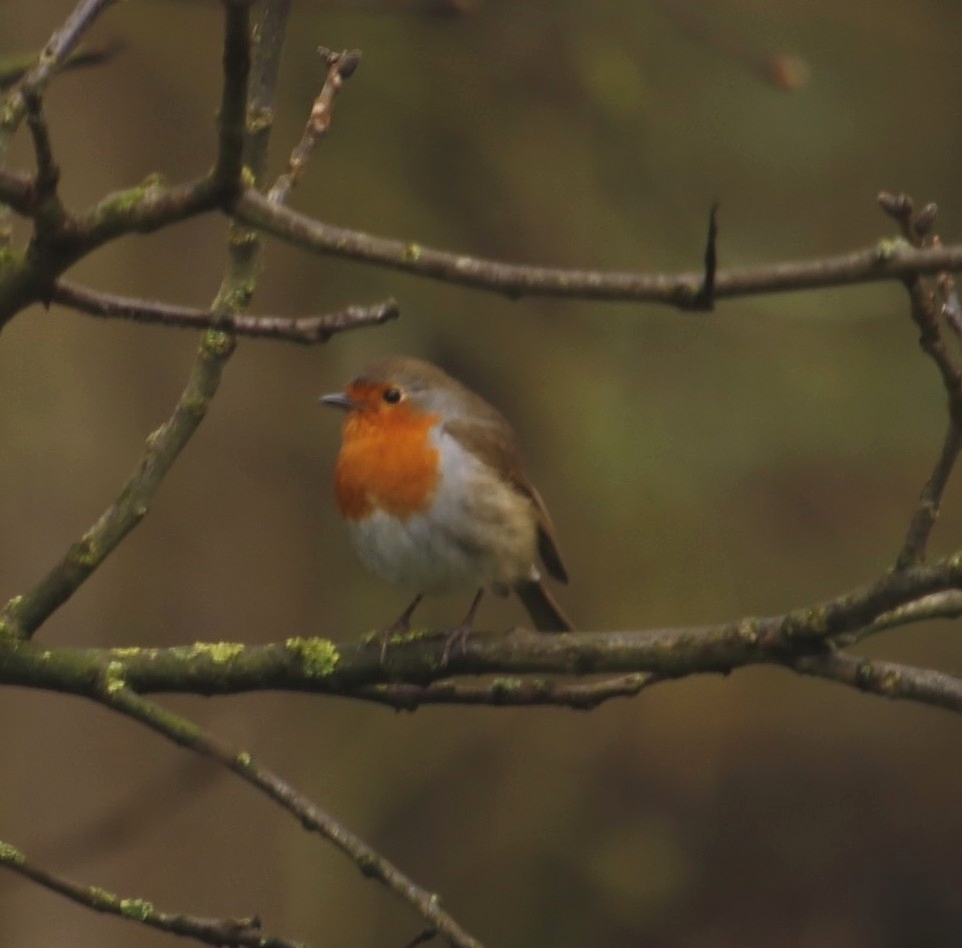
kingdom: Animalia
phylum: Chordata
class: Aves
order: Passeriformes
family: Muscicapidae
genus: Erithacus
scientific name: Erithacus rubecula
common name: European robin
